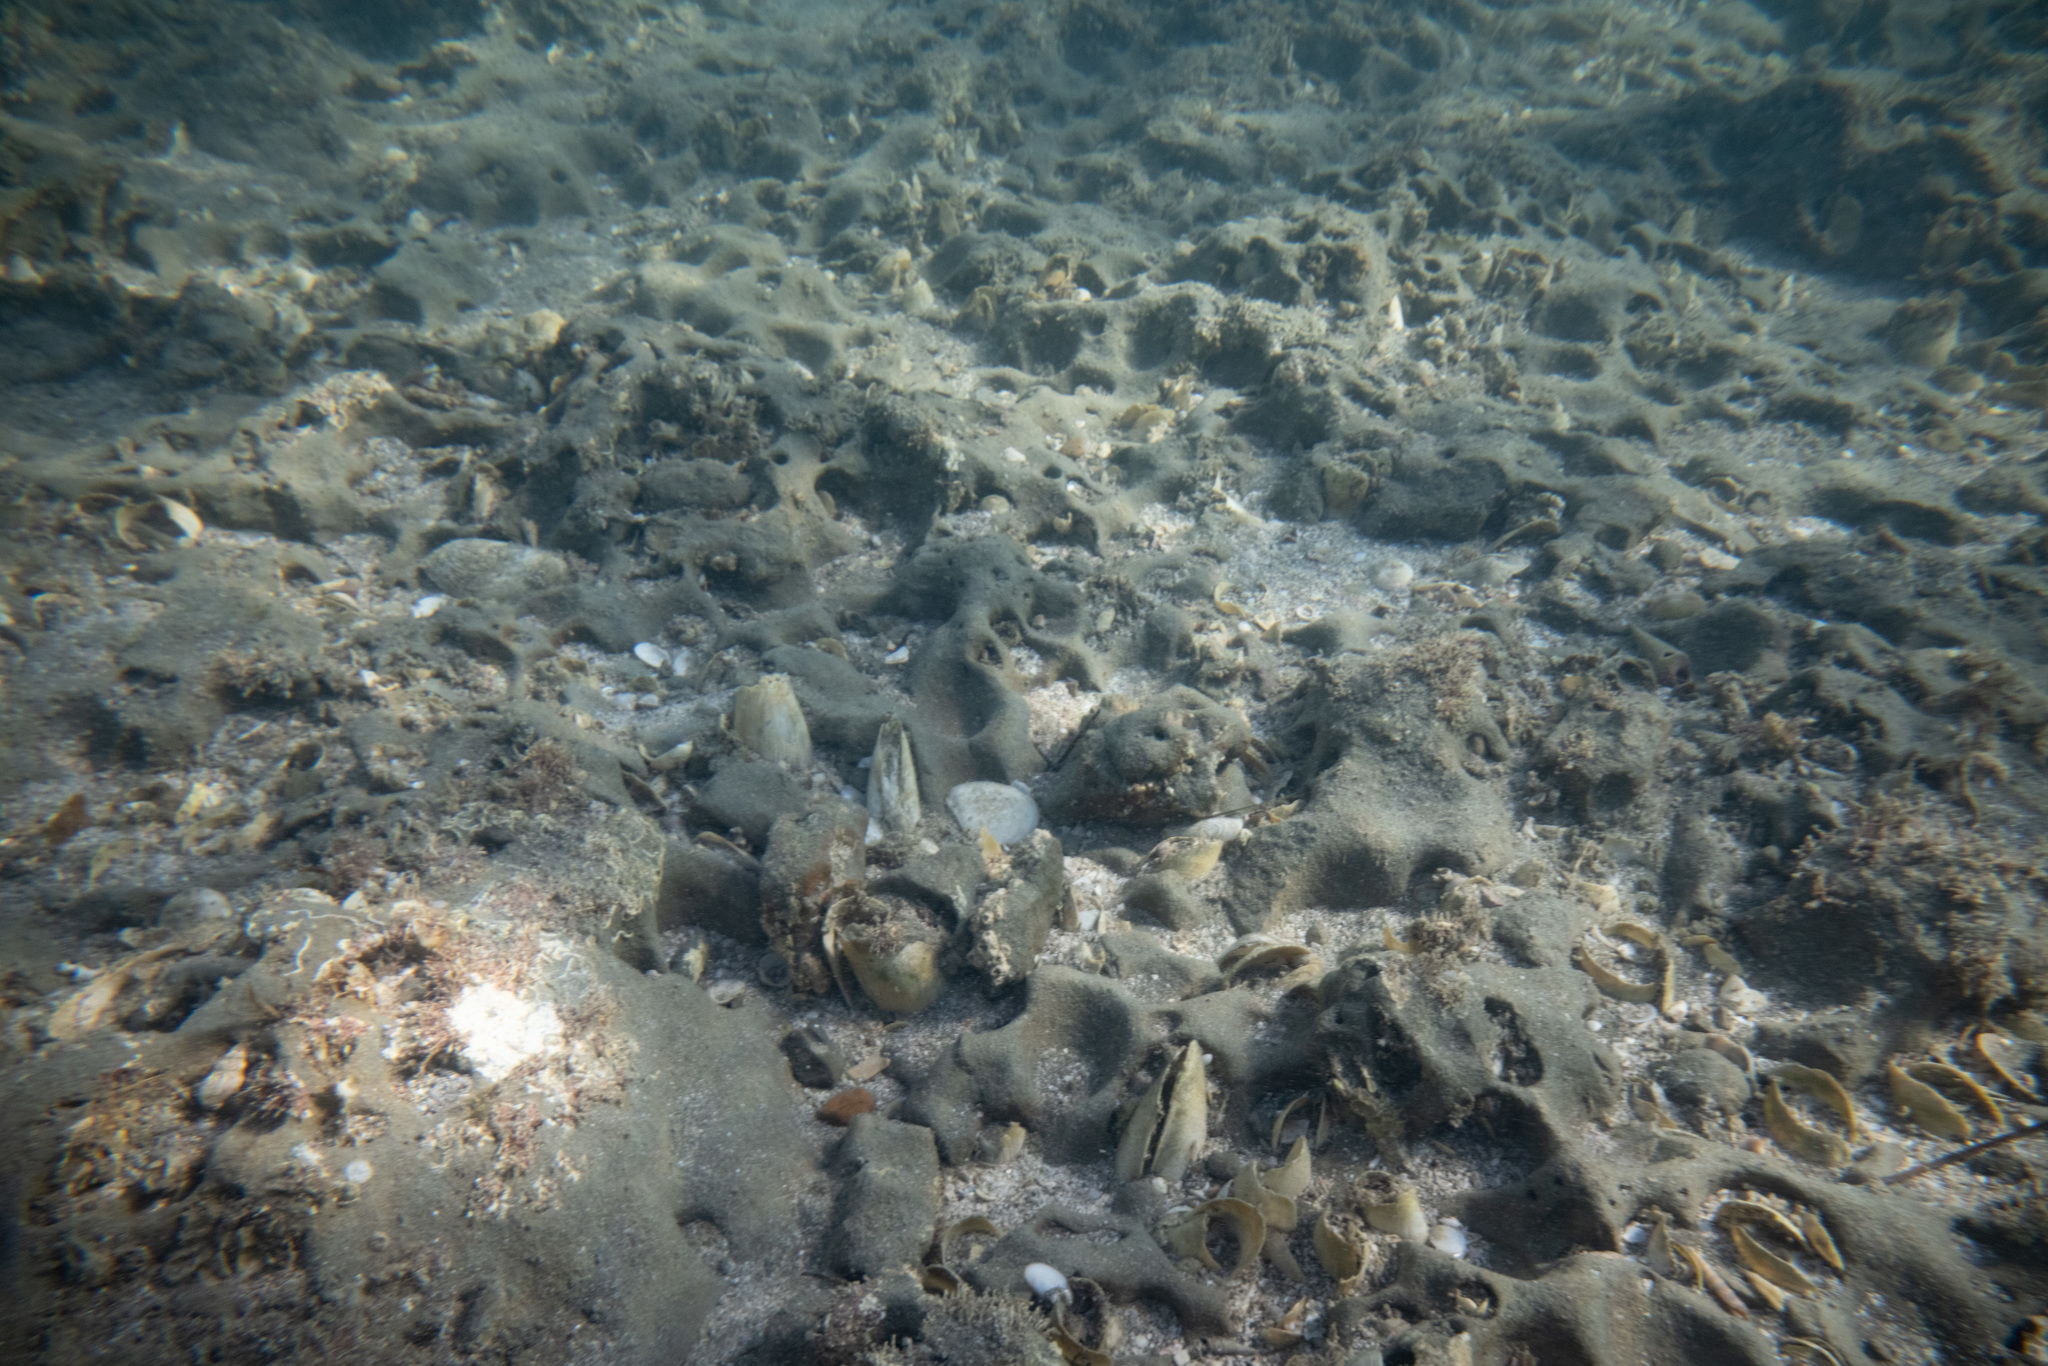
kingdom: Animalia
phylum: Mollusca
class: Bivalvia
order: Myida
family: Pholadidae
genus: Pholadidea
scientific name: Pholadidea suteri
